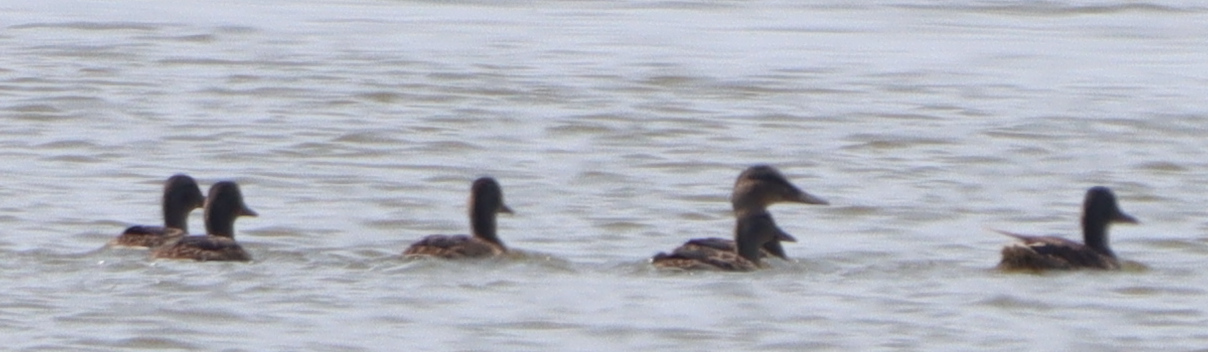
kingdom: Animalia
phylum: Chordata
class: Aves
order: Anseriformes
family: Anatidae
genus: Anas
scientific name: Anas platyrhynchos
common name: Mallard
